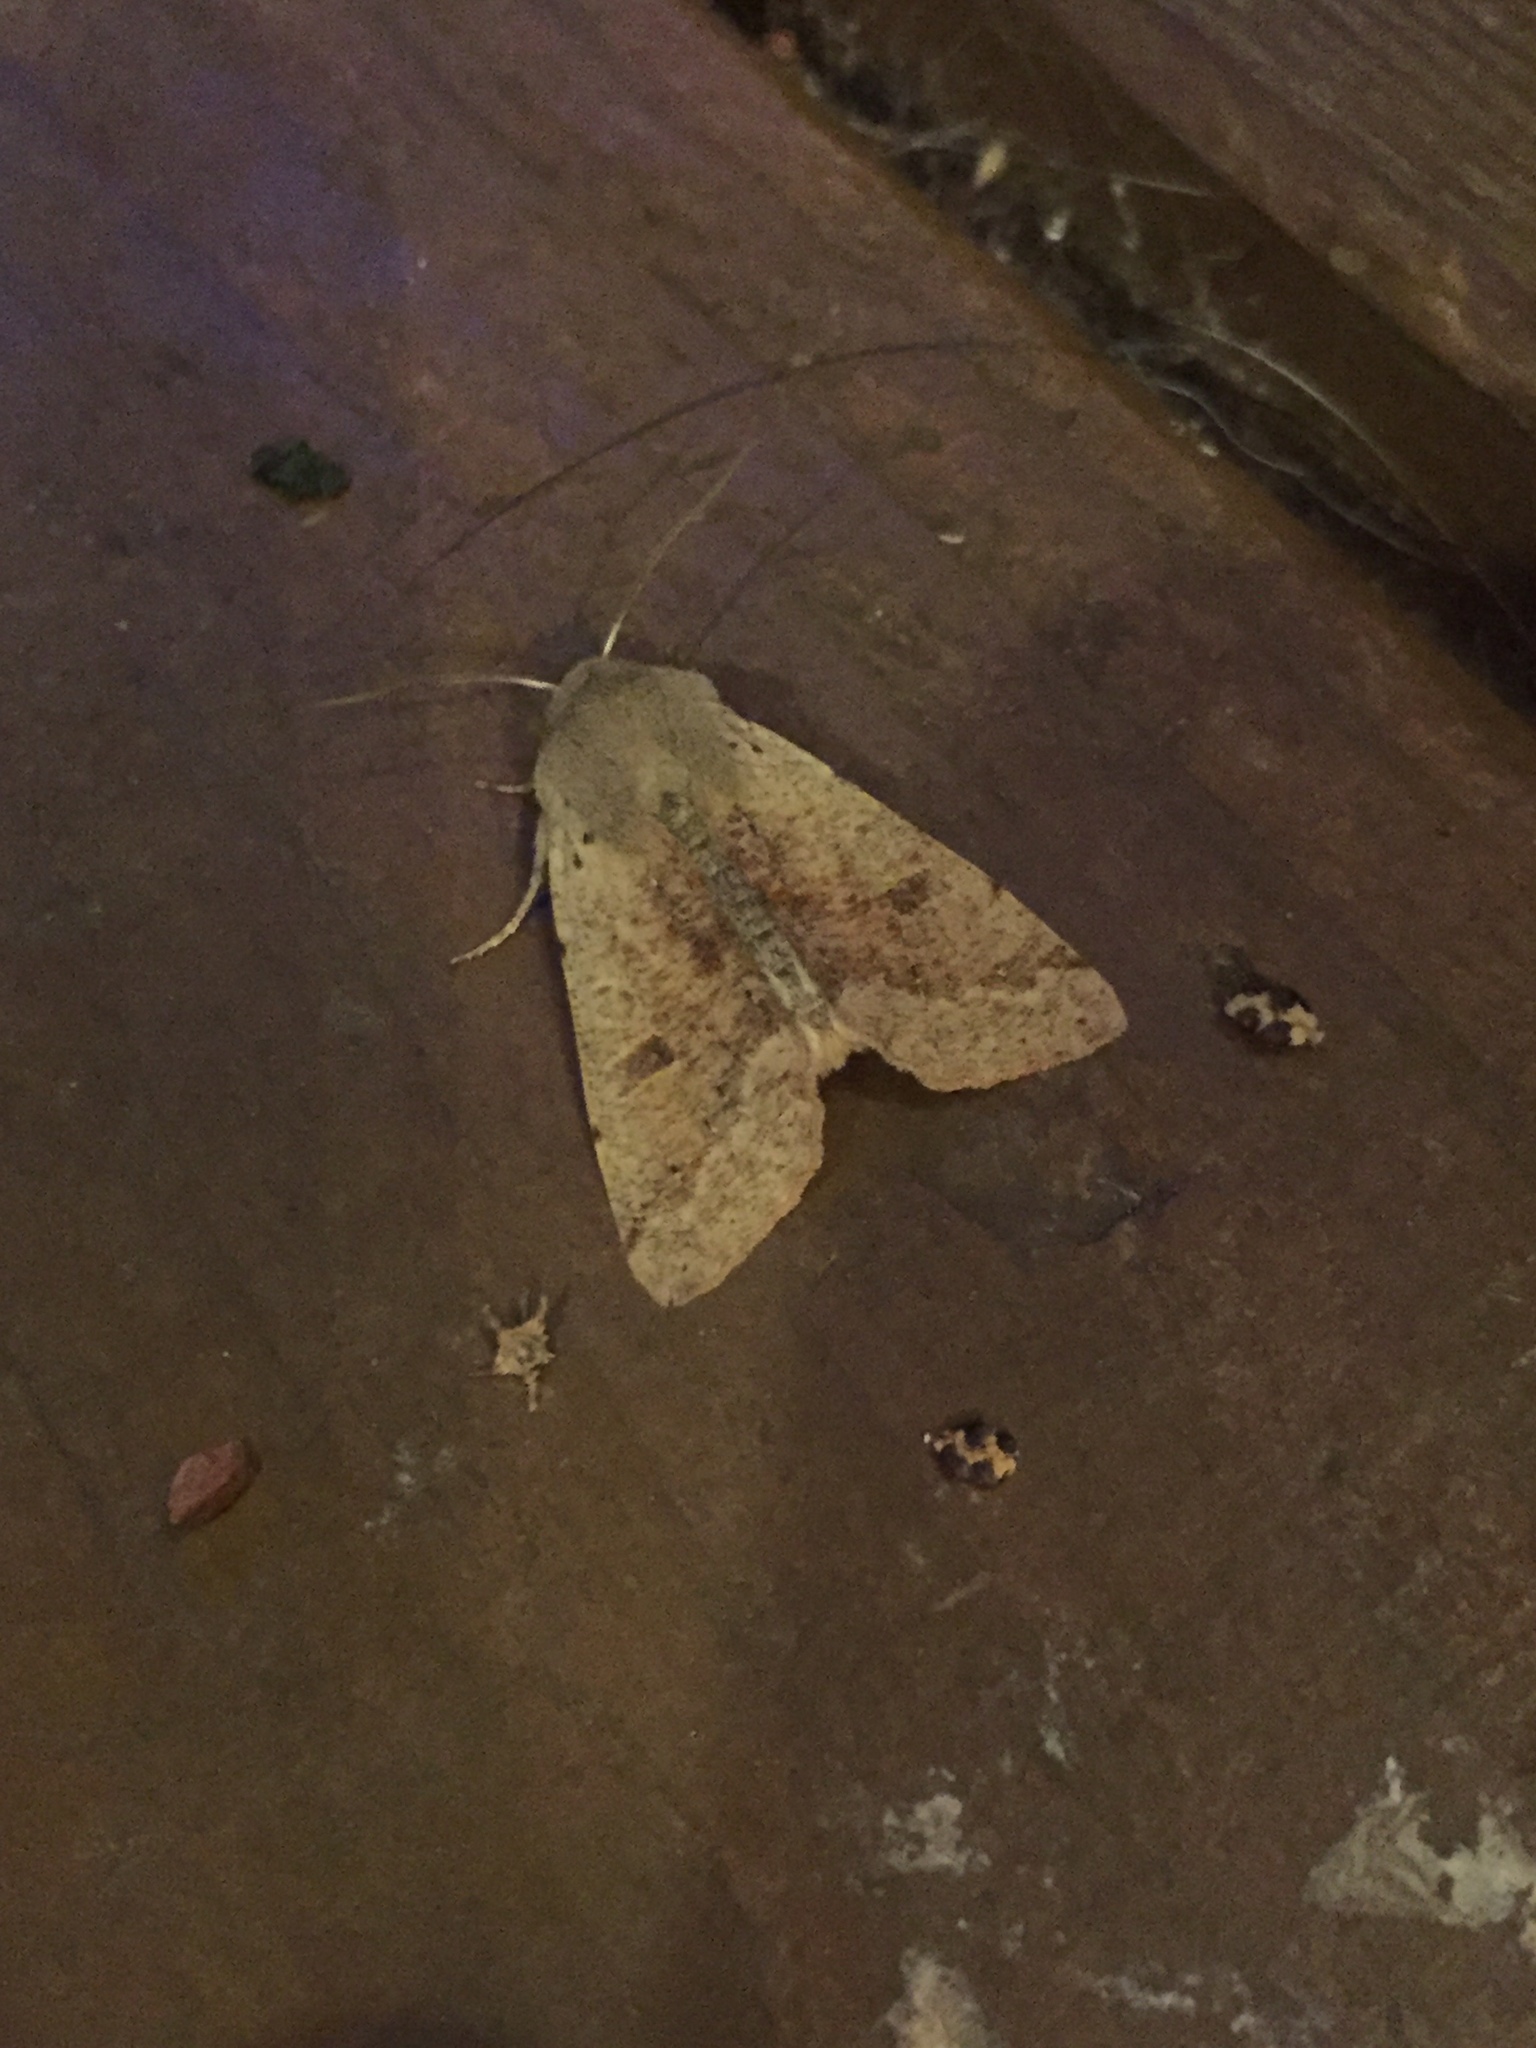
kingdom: Animalia
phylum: Arthropoda
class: Insecta
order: Lepidoptera
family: Noctuidae
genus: Orthosia
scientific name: Orthosia pacifica
